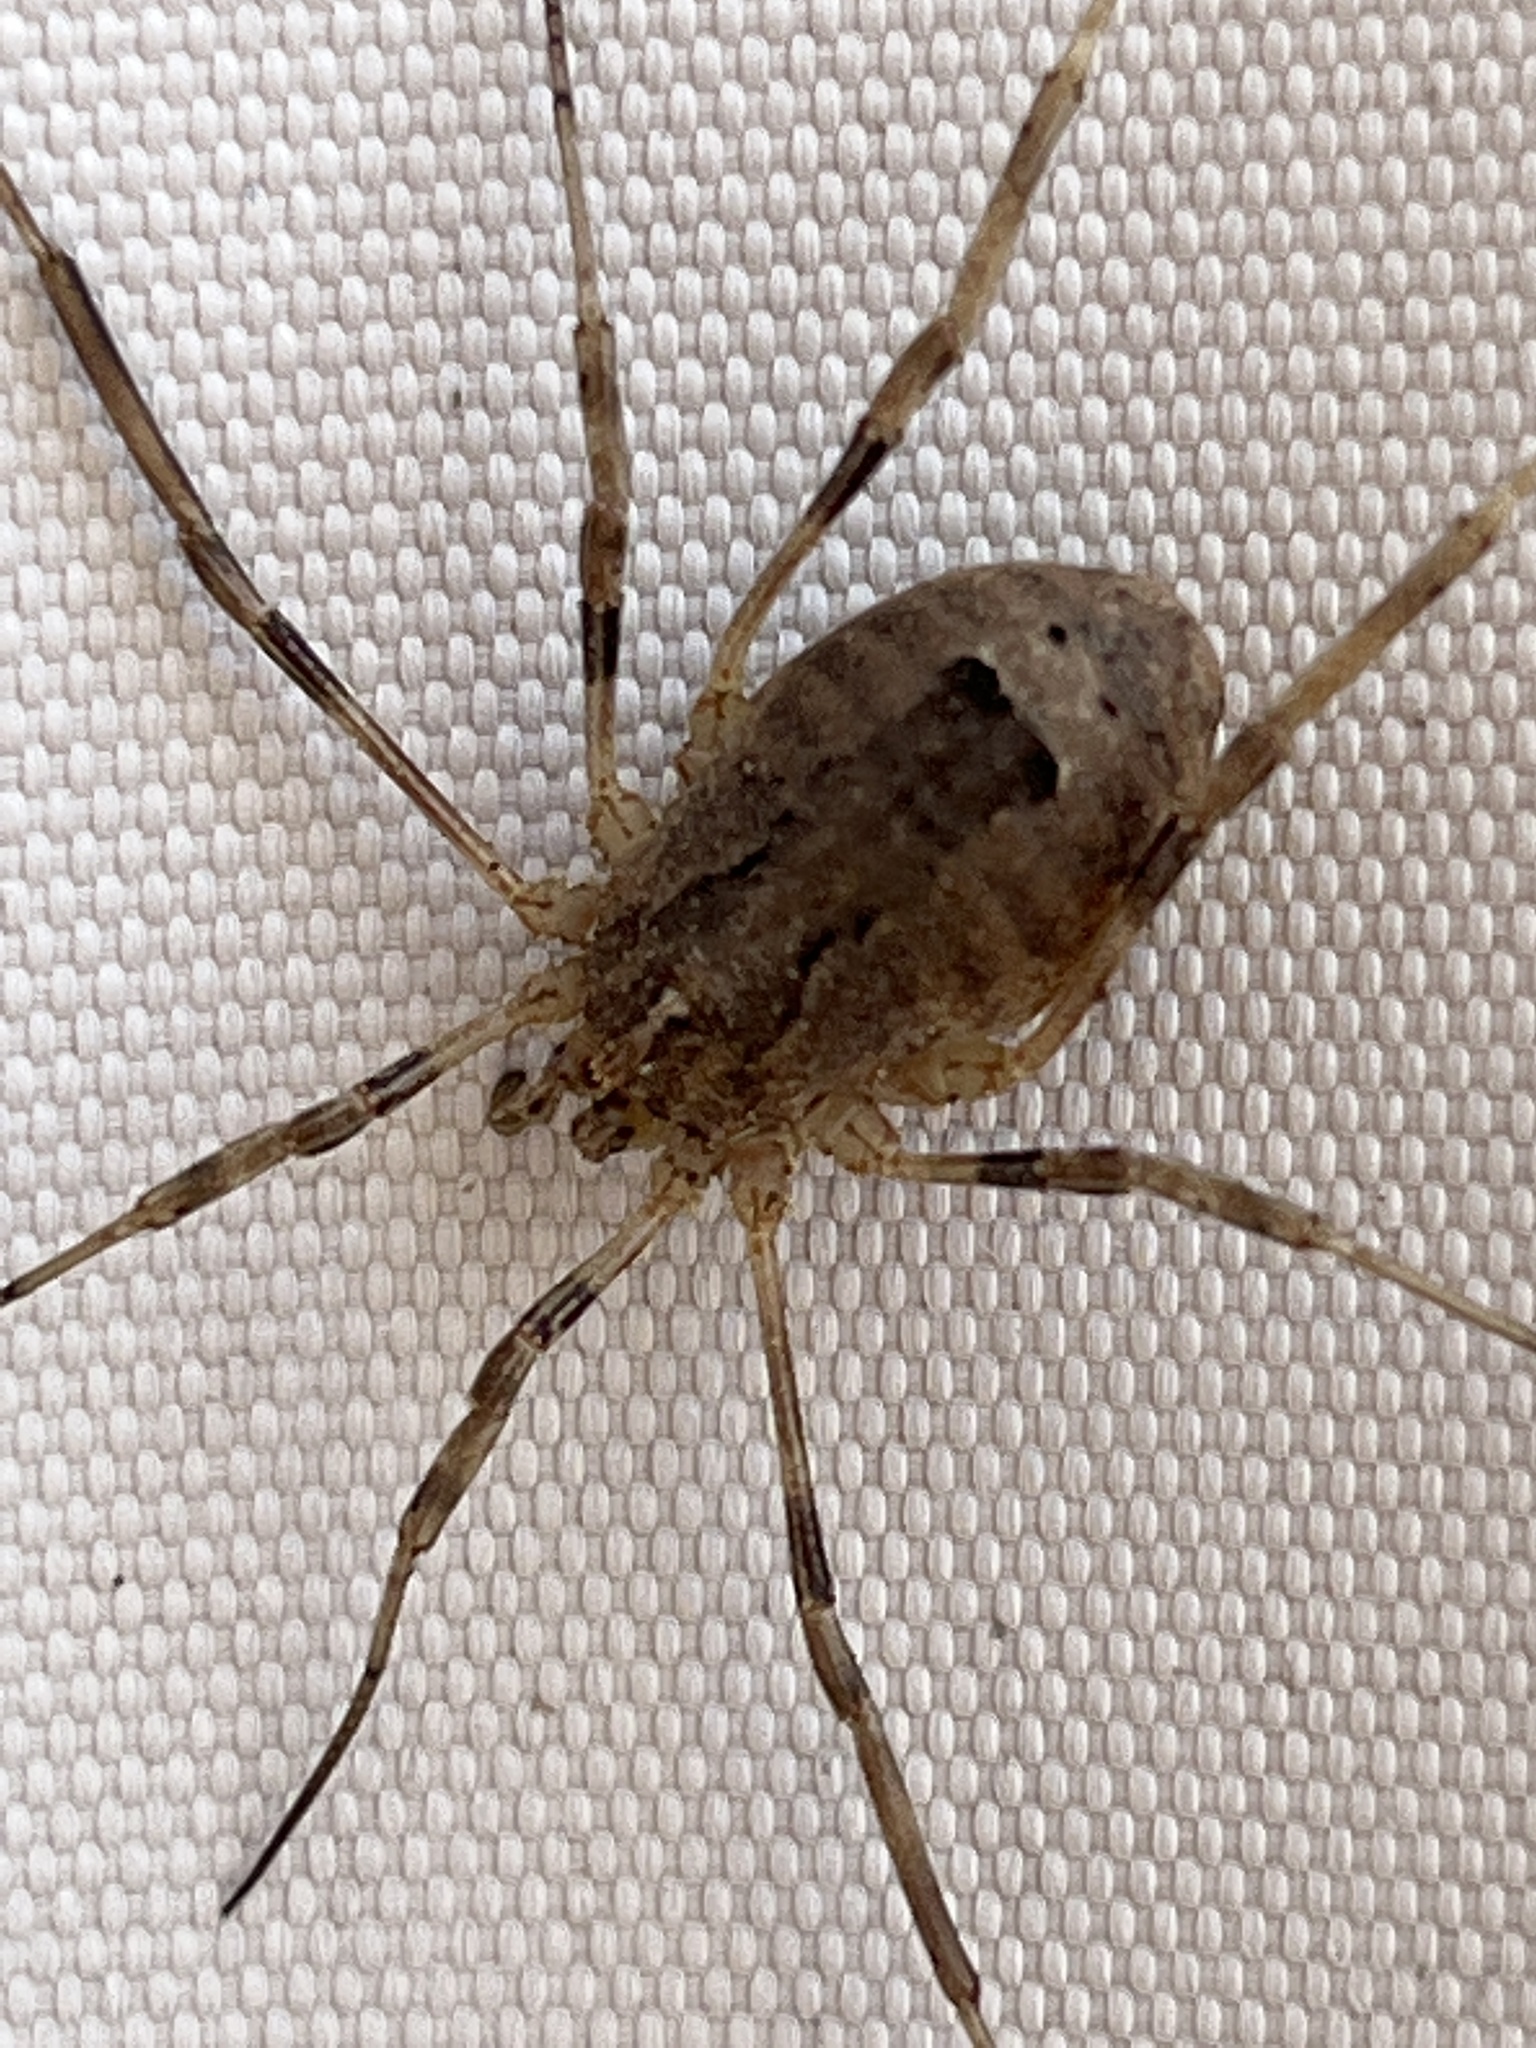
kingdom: Animalia
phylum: Arthropoda
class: Arachnida
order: Opiliones
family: Phalangiidae
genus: Odiellus
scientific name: Odiellus spinosus
